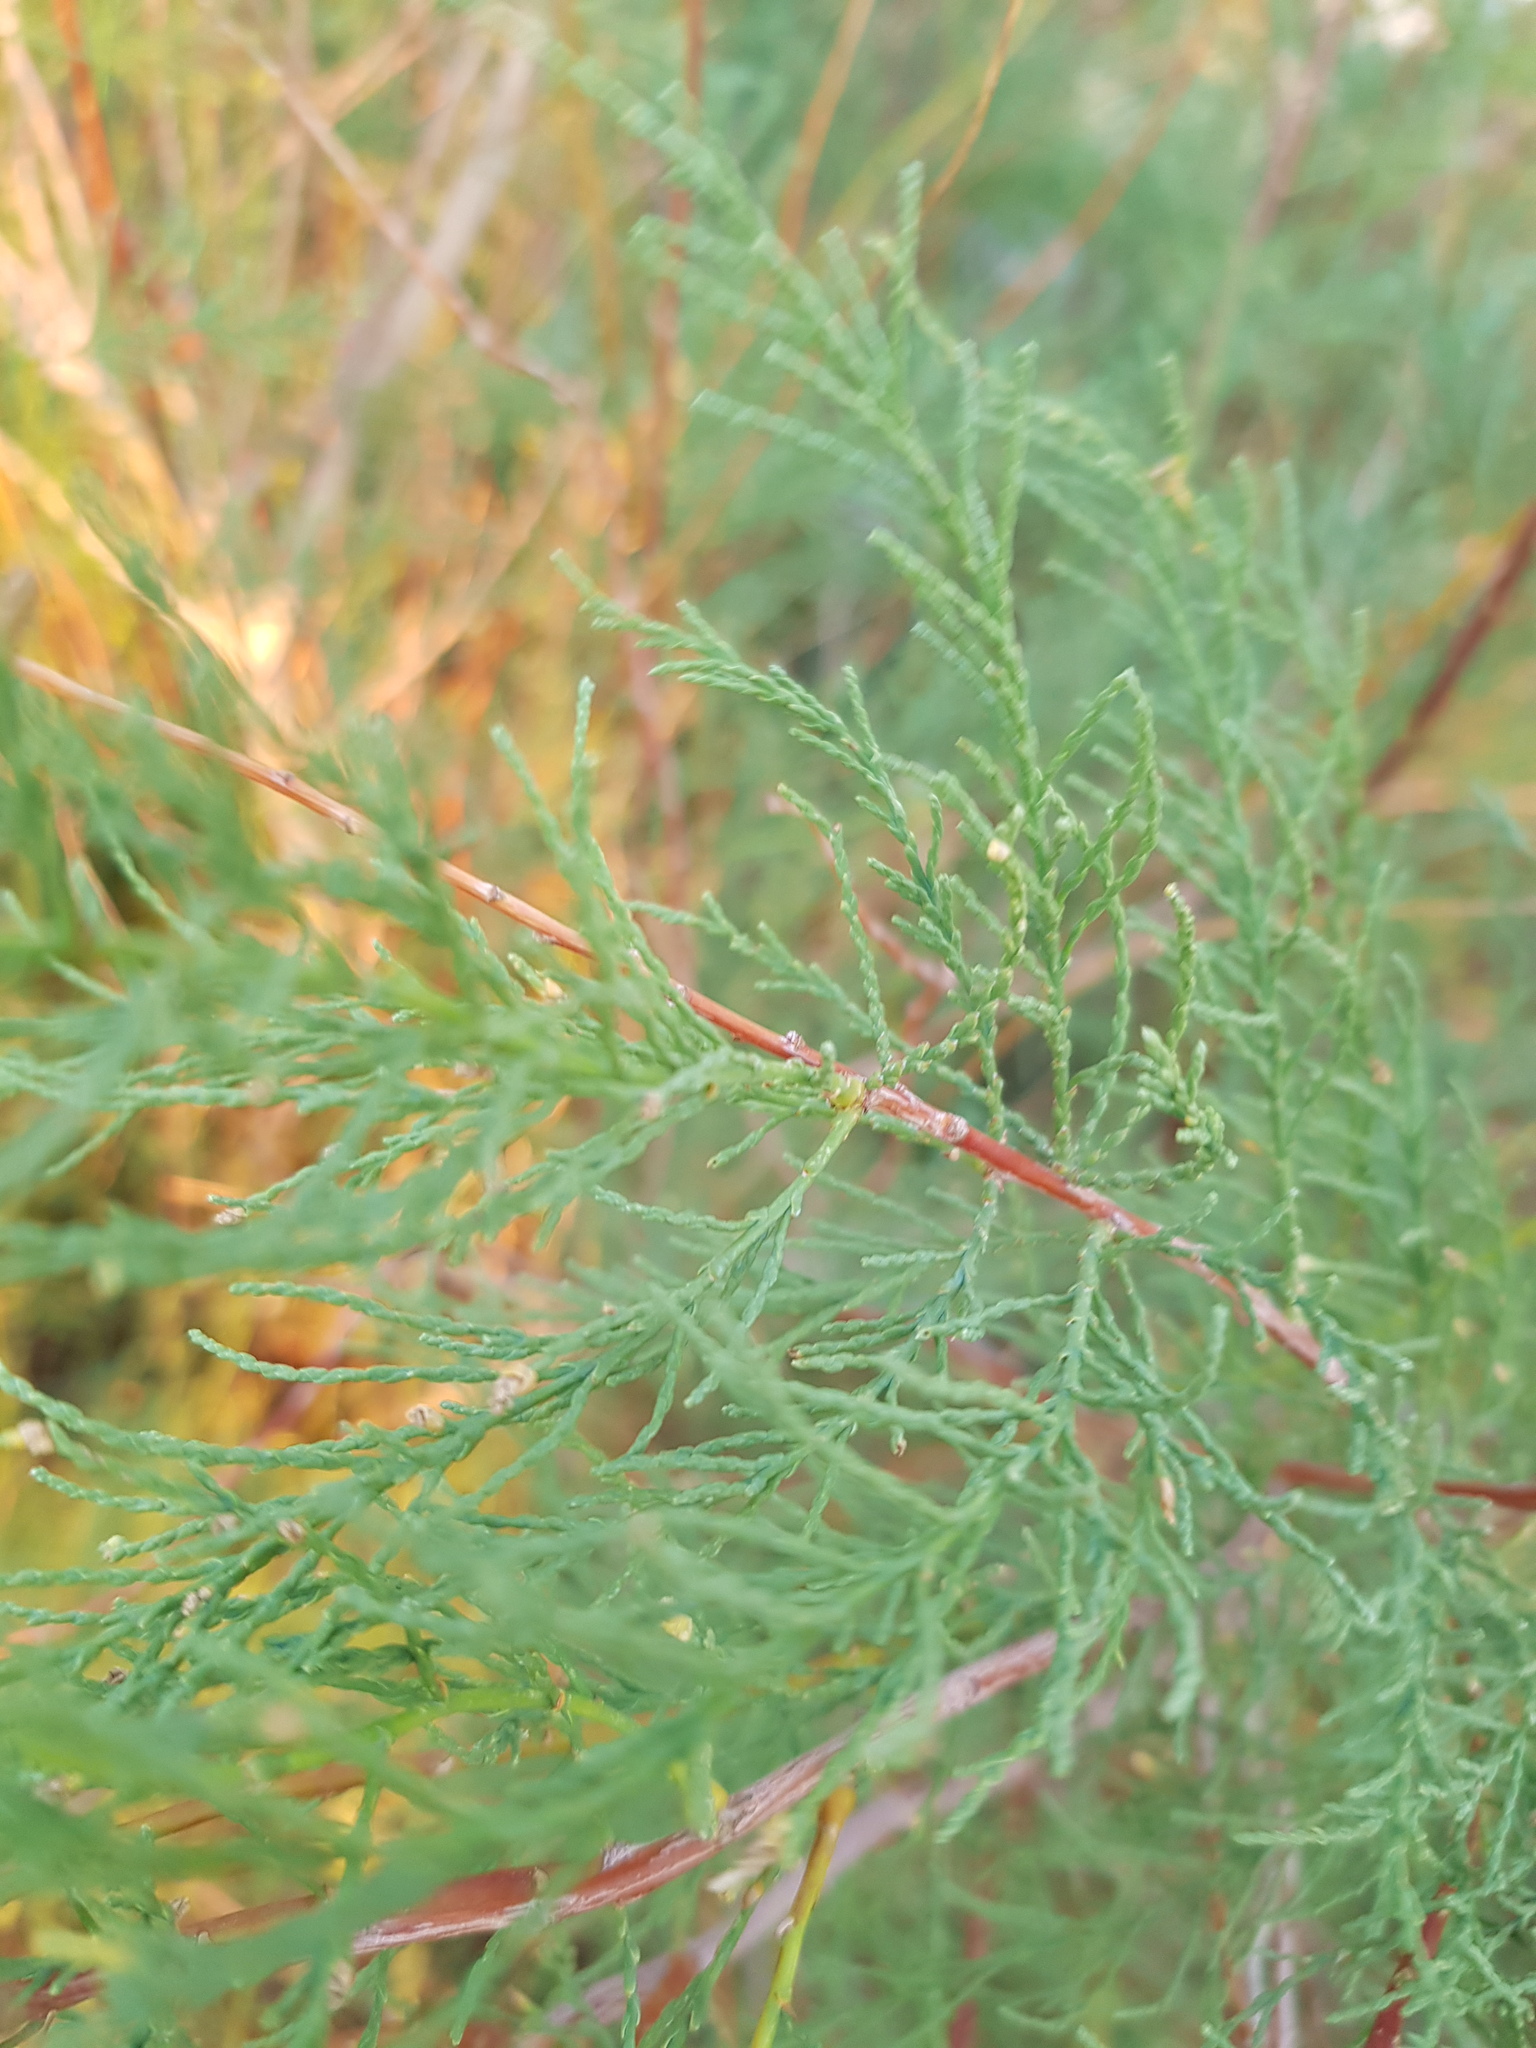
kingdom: Plantae
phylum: Tracheophyta
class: Magnoliopsida
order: Caryophyllales
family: Tamaricaceae
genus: Tamarix
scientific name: Tamarix ramosissima
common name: Pink tamarisk
